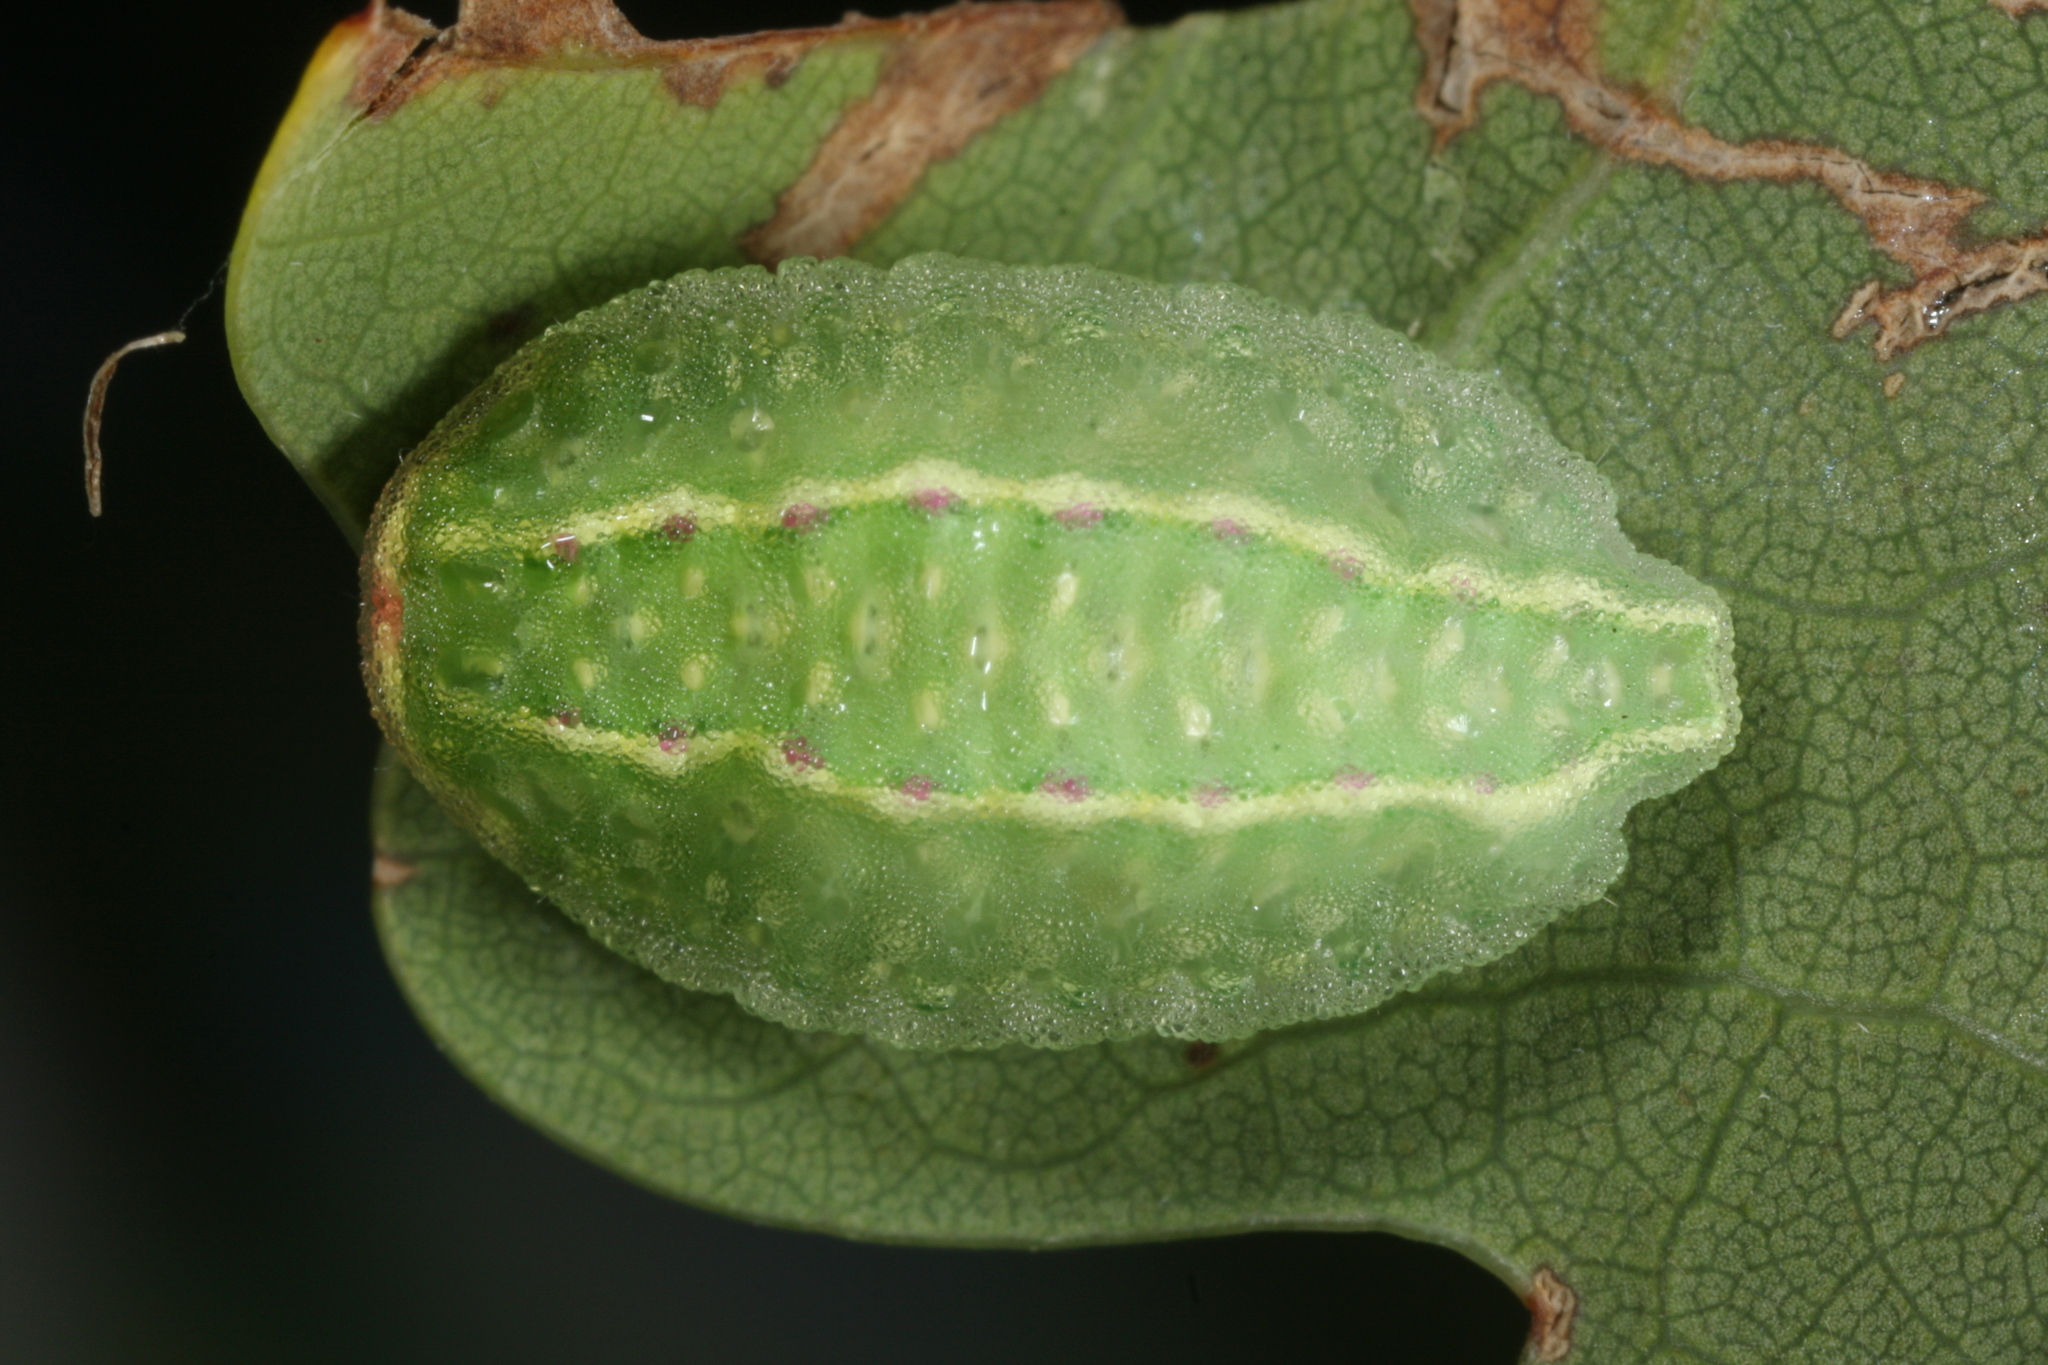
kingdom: Animalia
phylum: Arthropoda
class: Insecta
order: Lepidoptera
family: Limacodidae
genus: Apoda
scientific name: Apoda limacodes
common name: Festoon
